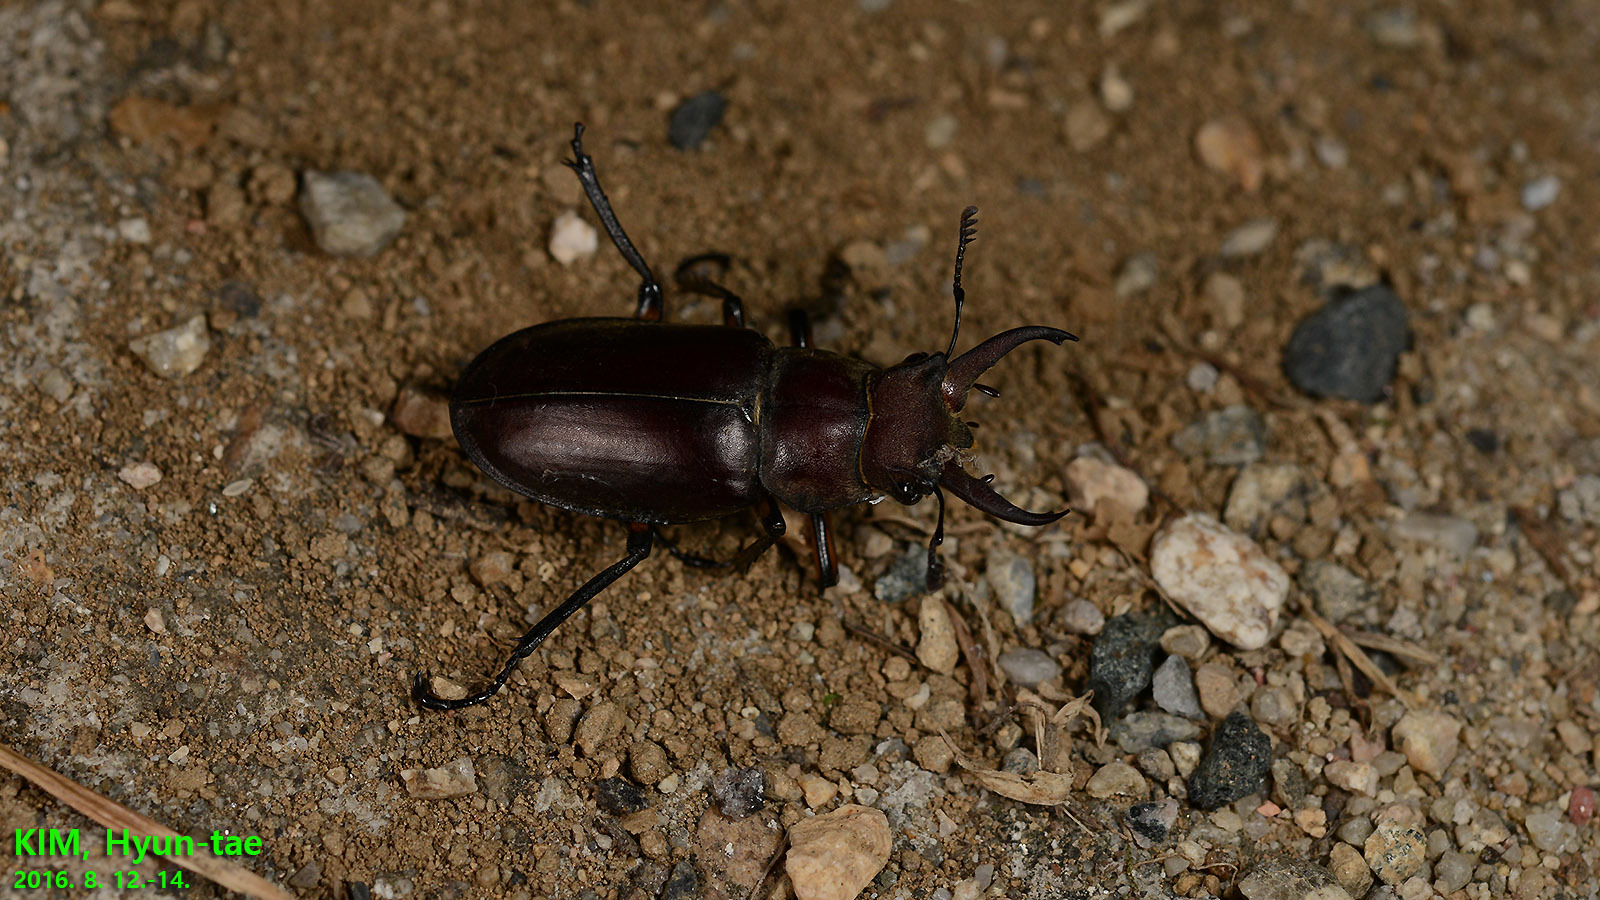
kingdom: Animalia
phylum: Arthropoda
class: Insecta
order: Coleoptera
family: Lucanidae
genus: Lucanus
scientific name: Lucanus maculifemoratus
